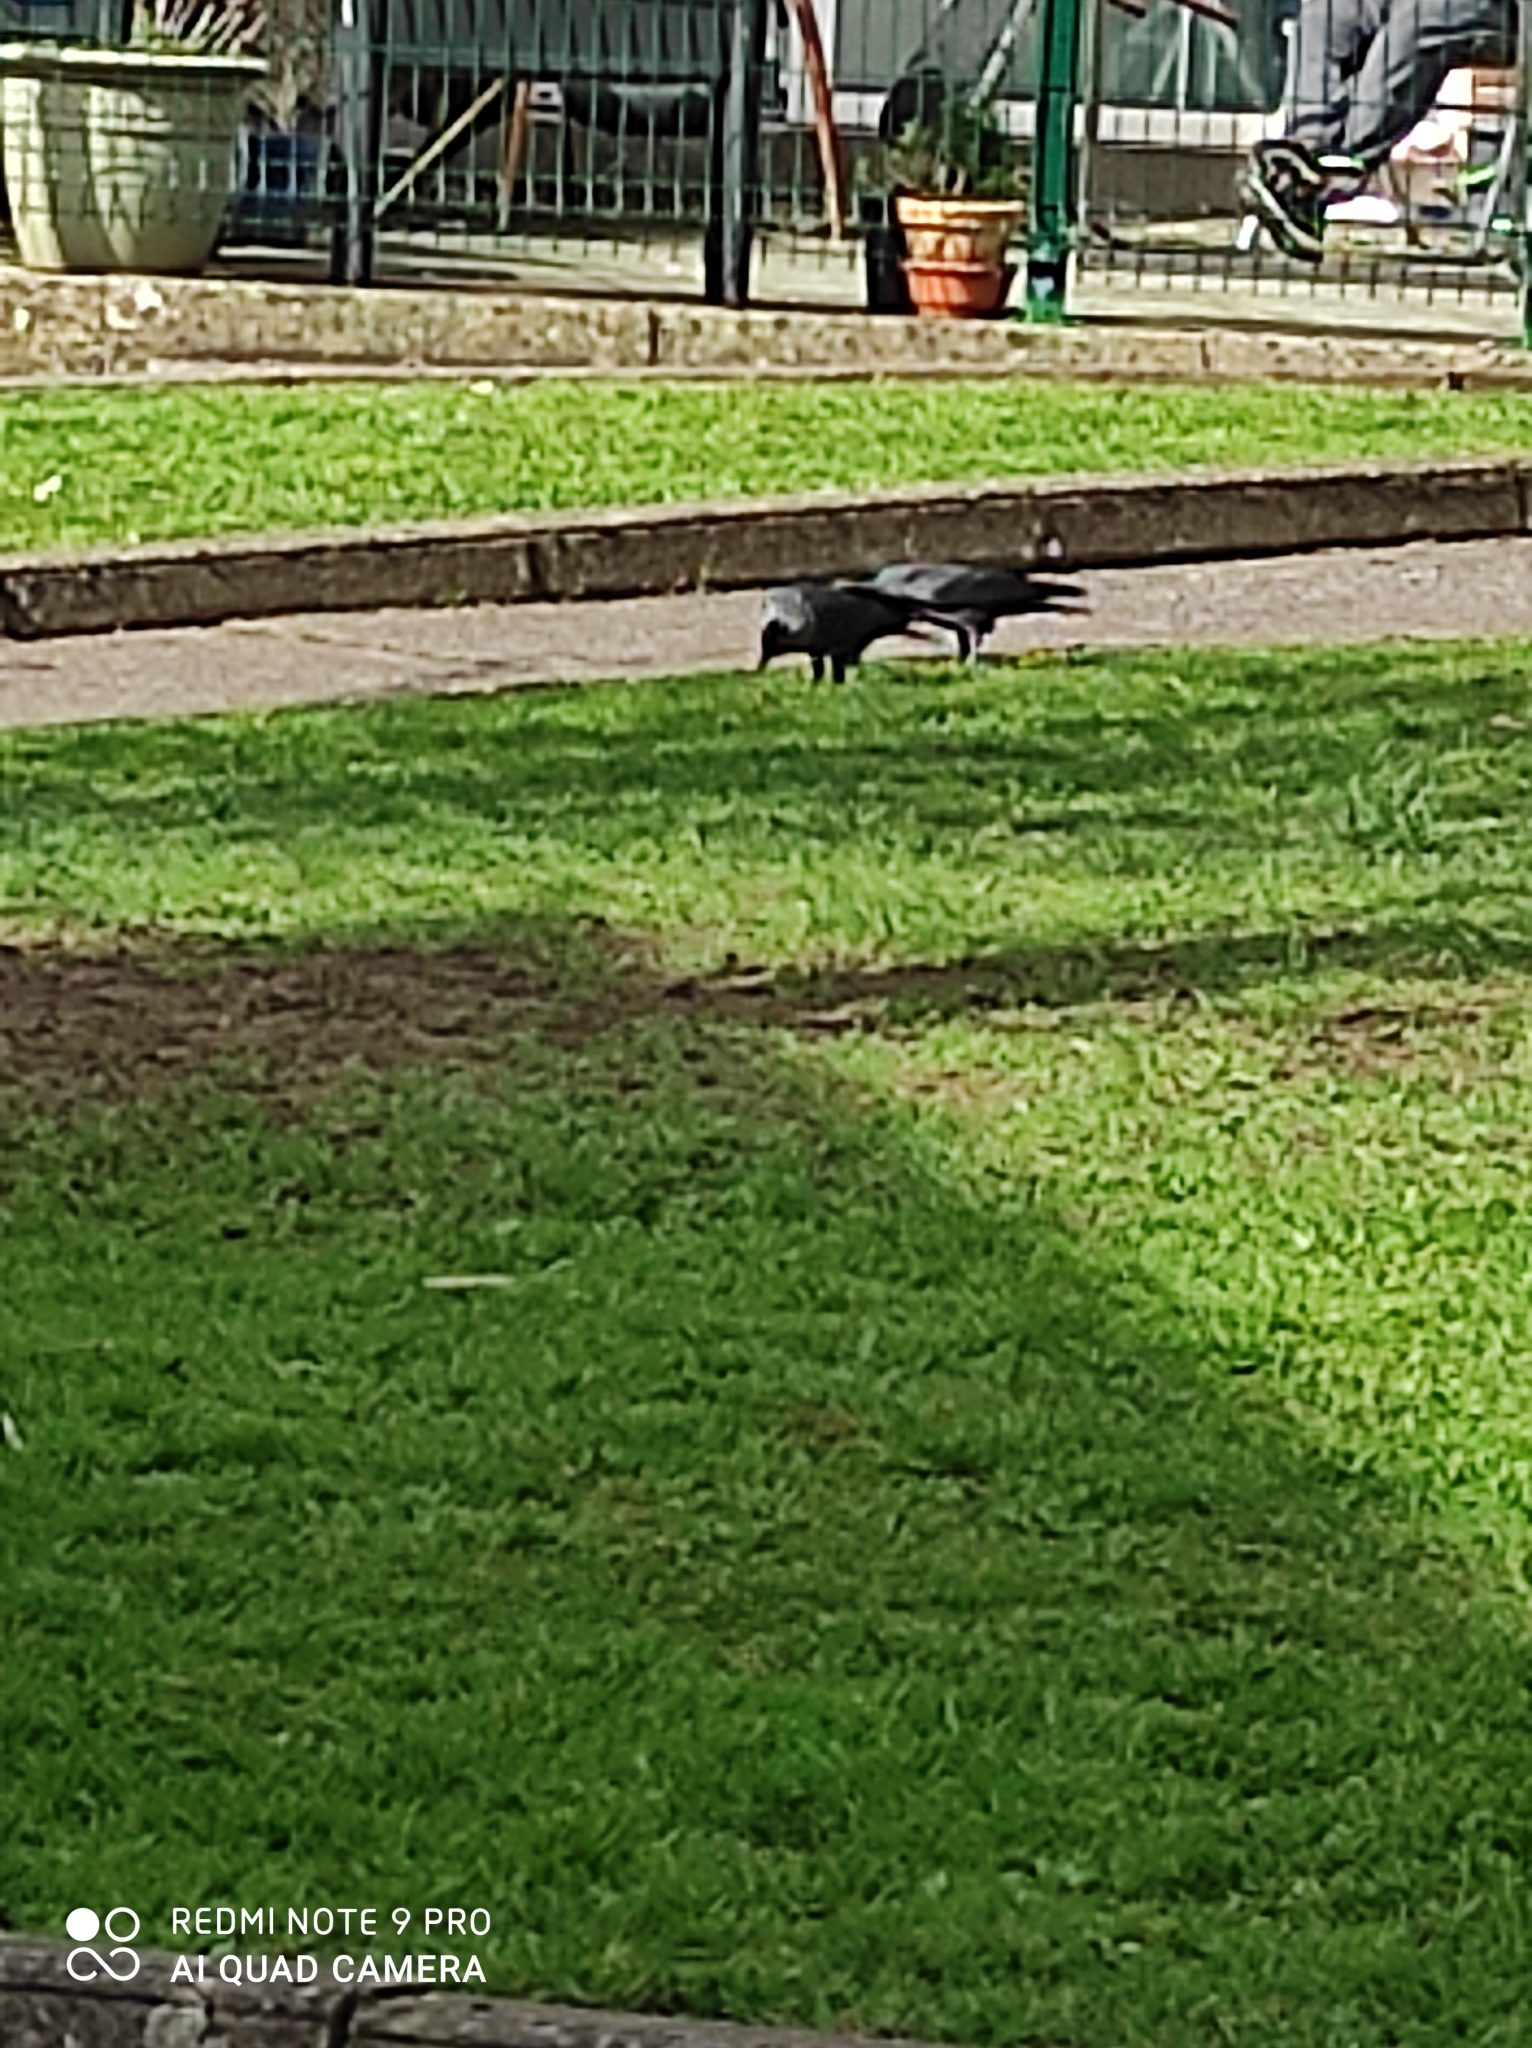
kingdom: Animalia
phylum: Chordata
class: Aves
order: Passeriformes
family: Corvidae
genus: Coloeus
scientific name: Coloeus monedula
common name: Western jackdaw
